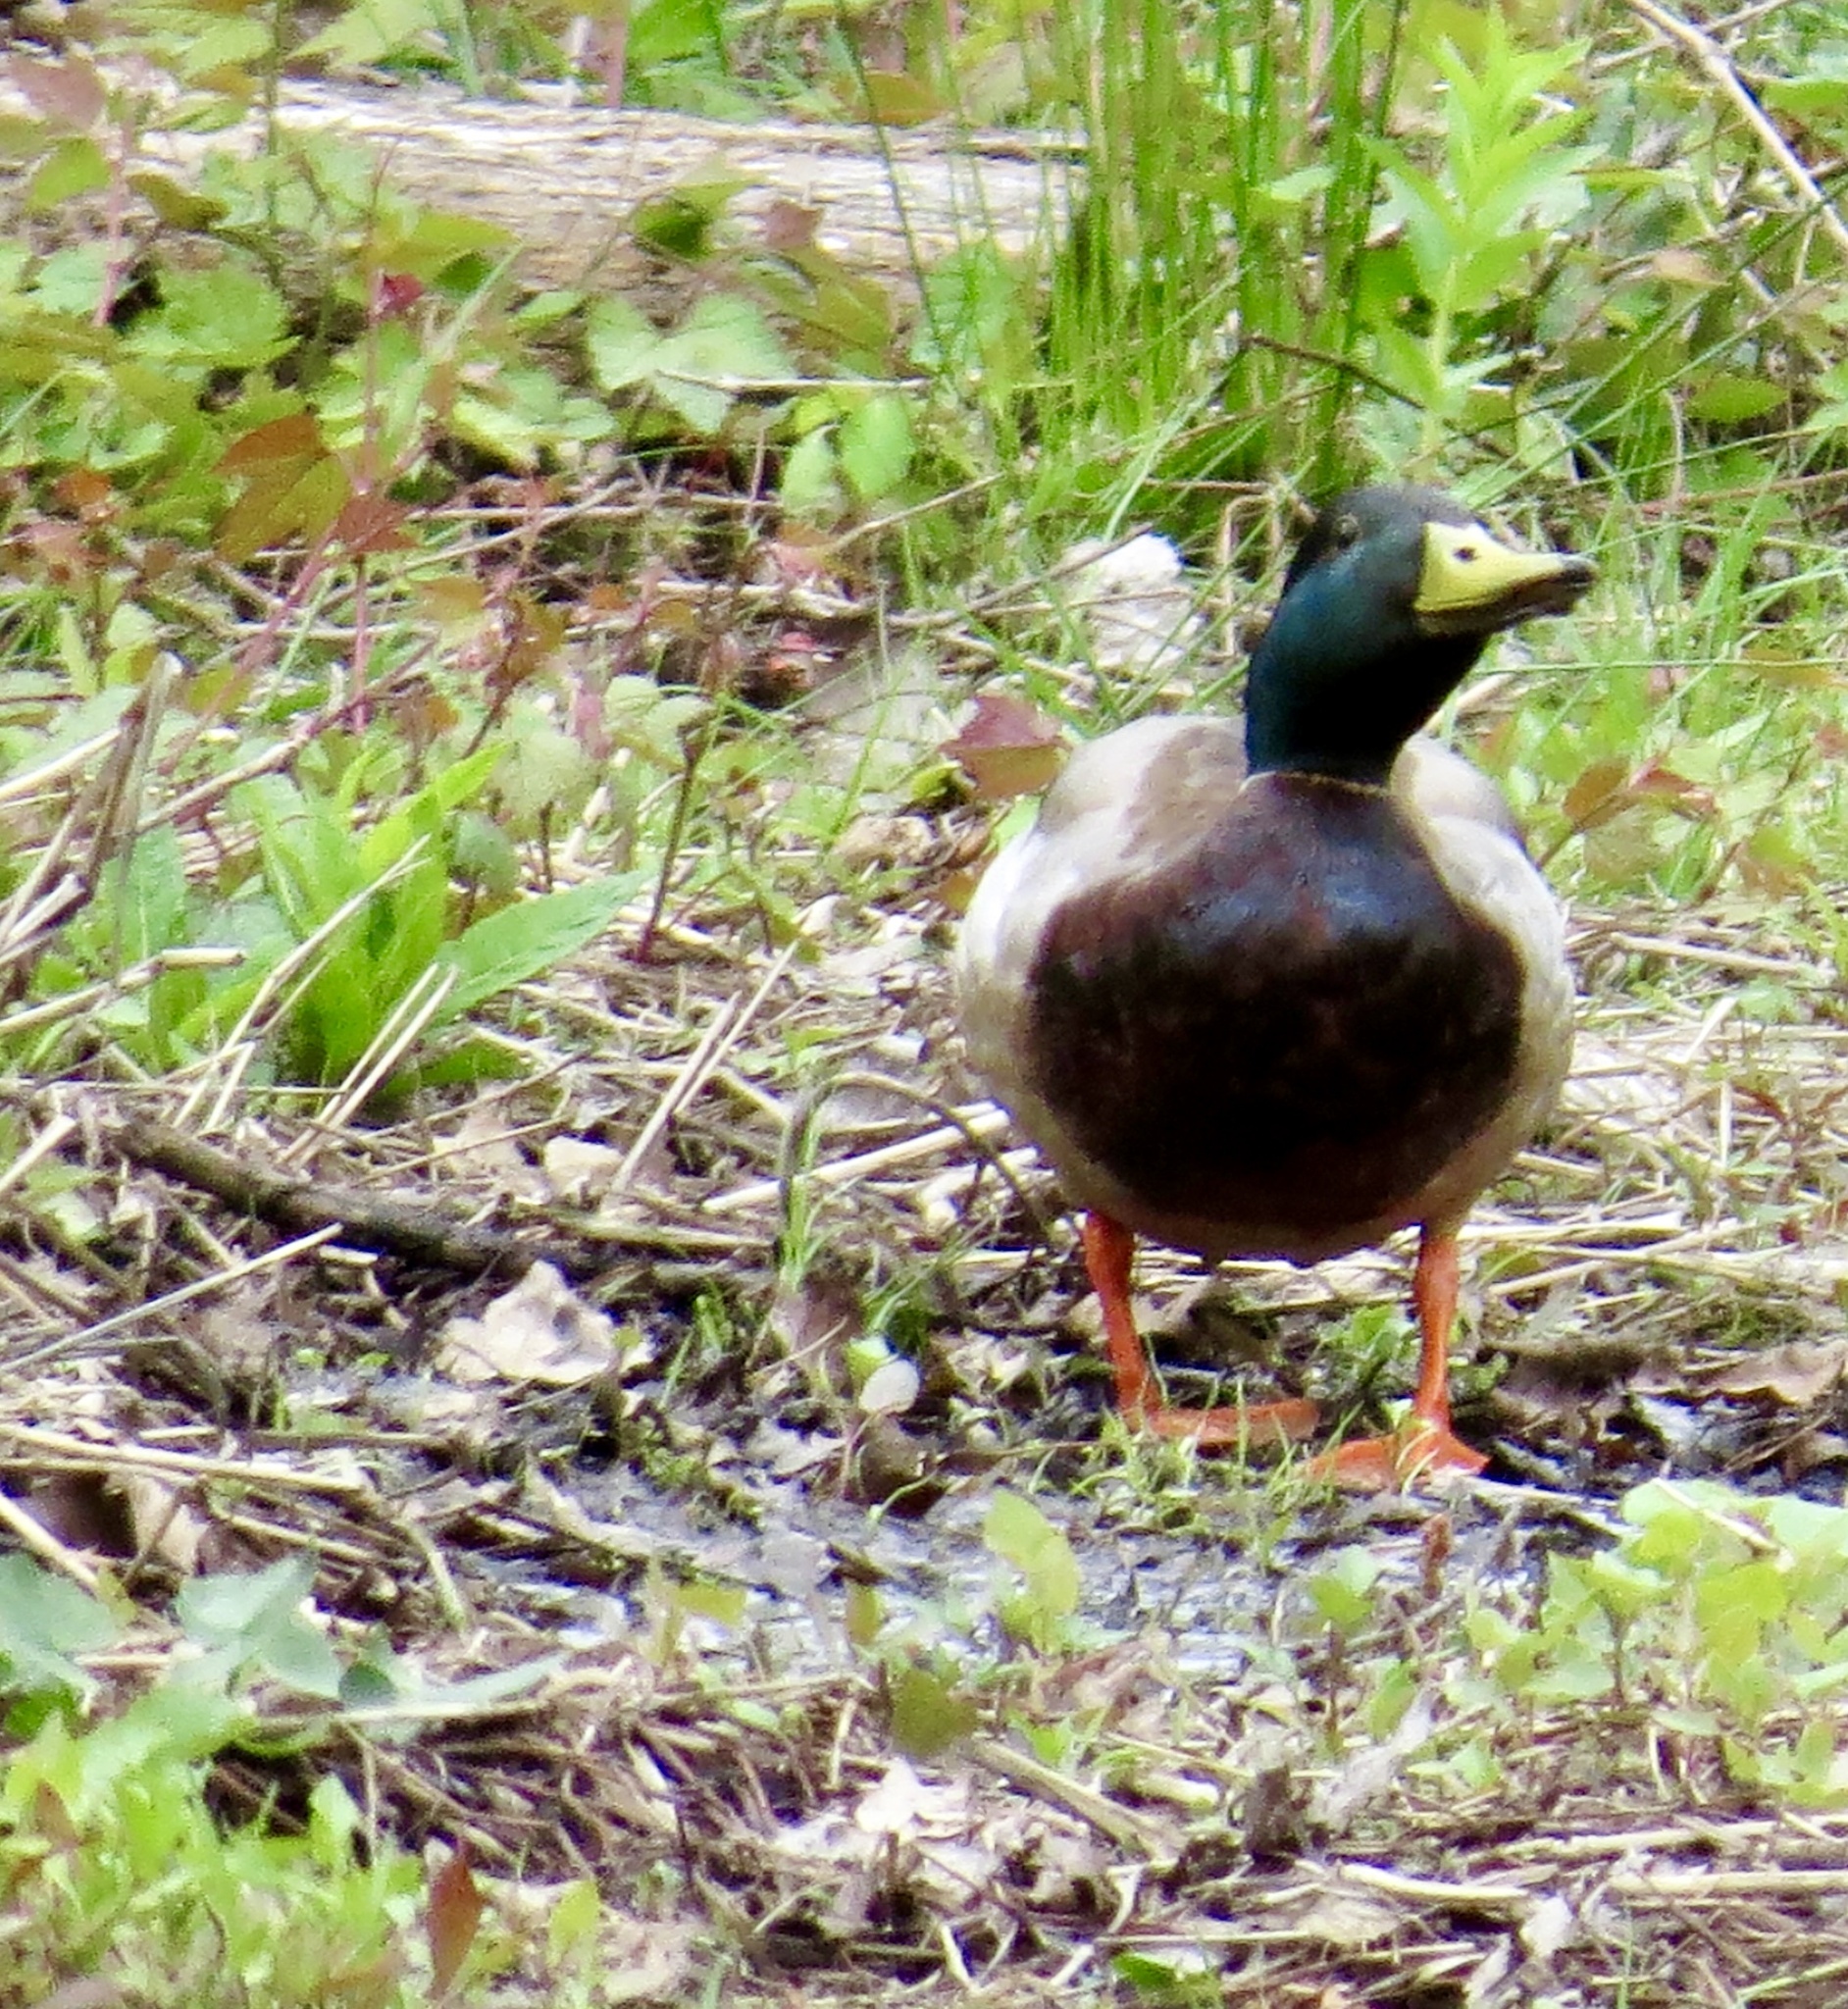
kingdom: Animalia
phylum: Chordata
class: Aves
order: Anseriformes
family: Anatidae
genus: Anas
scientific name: Anas platyrhynchos
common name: Mallard
